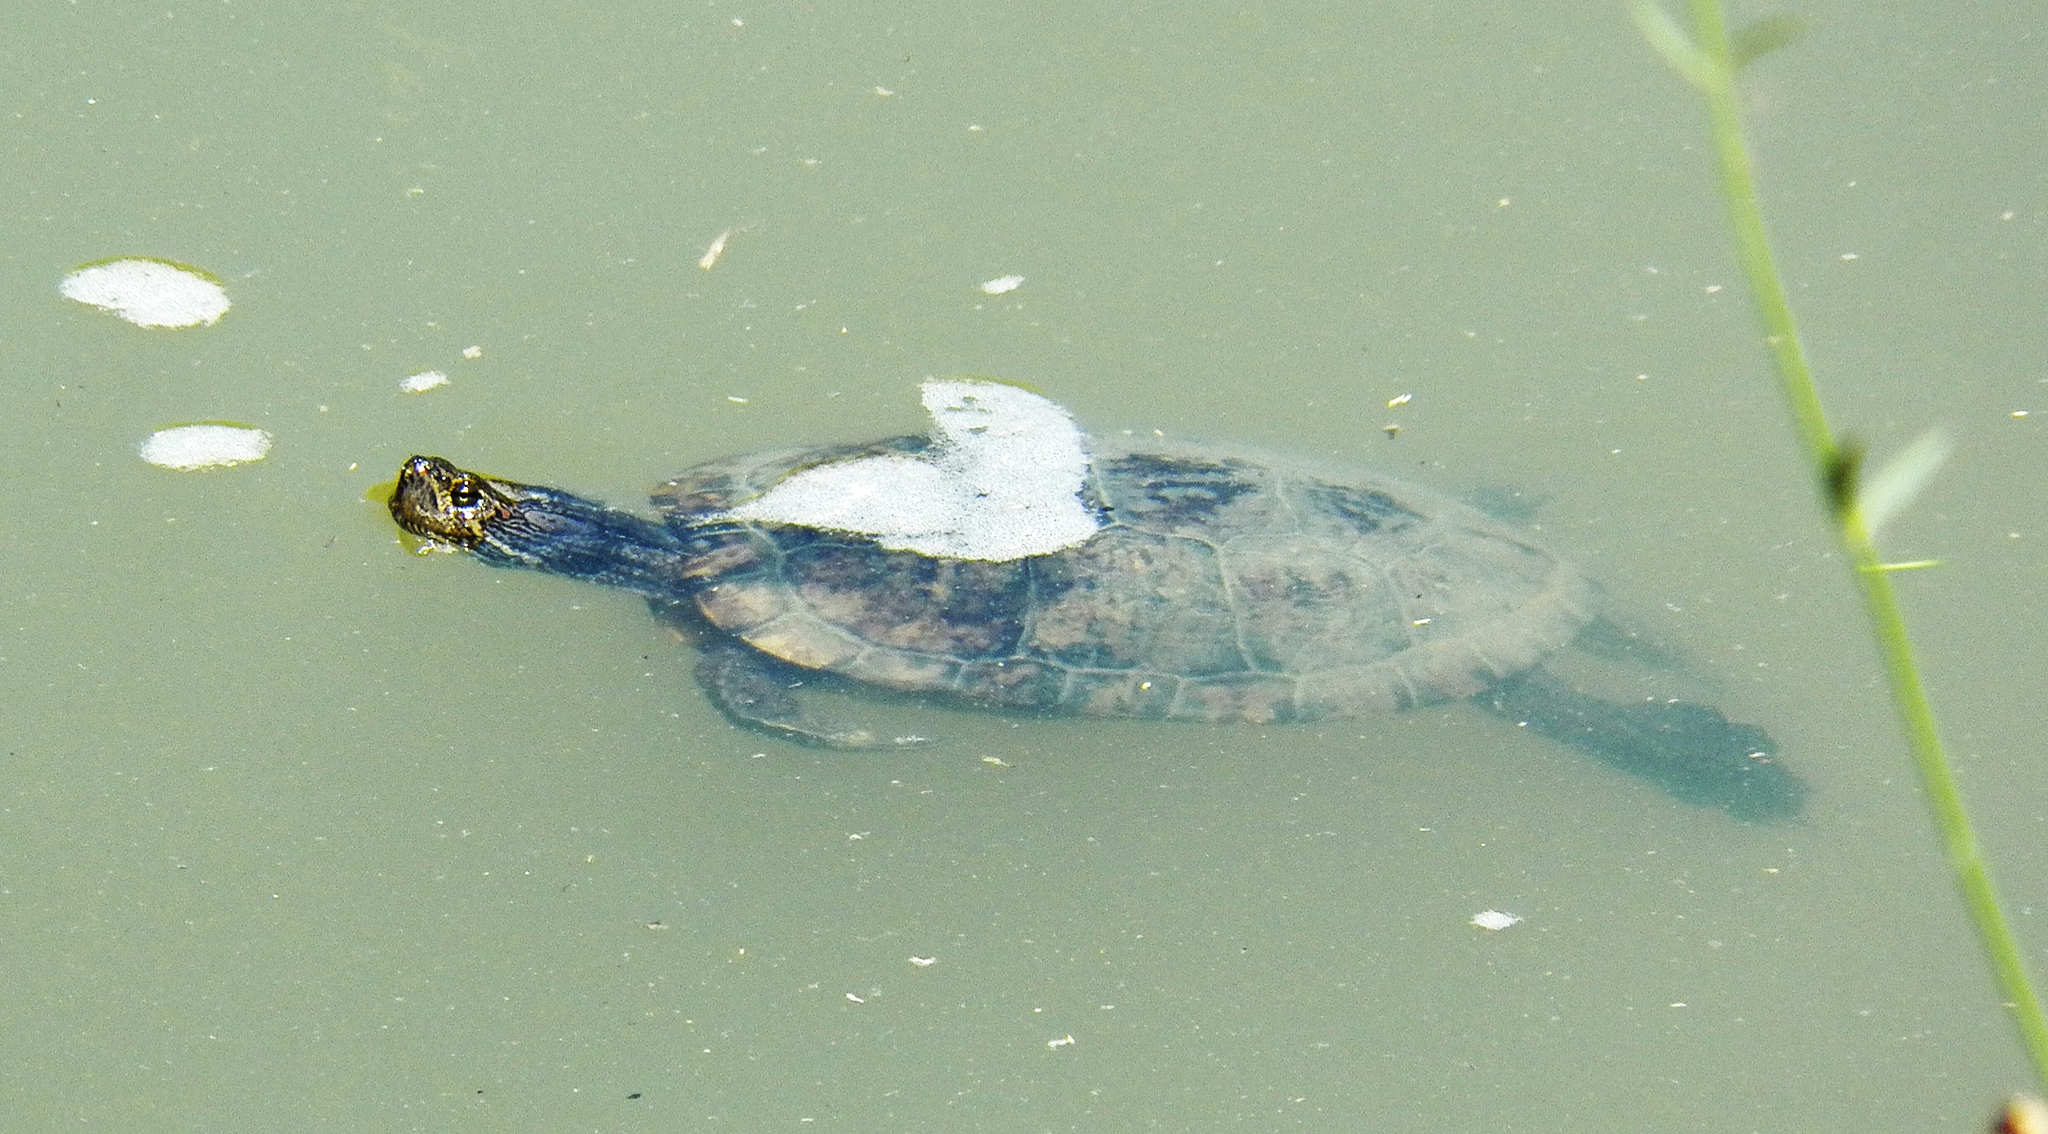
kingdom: Animalia
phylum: Chordata
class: Testudines
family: Emydidae
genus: Trachemys
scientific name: Trachemys scripta
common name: Slider
